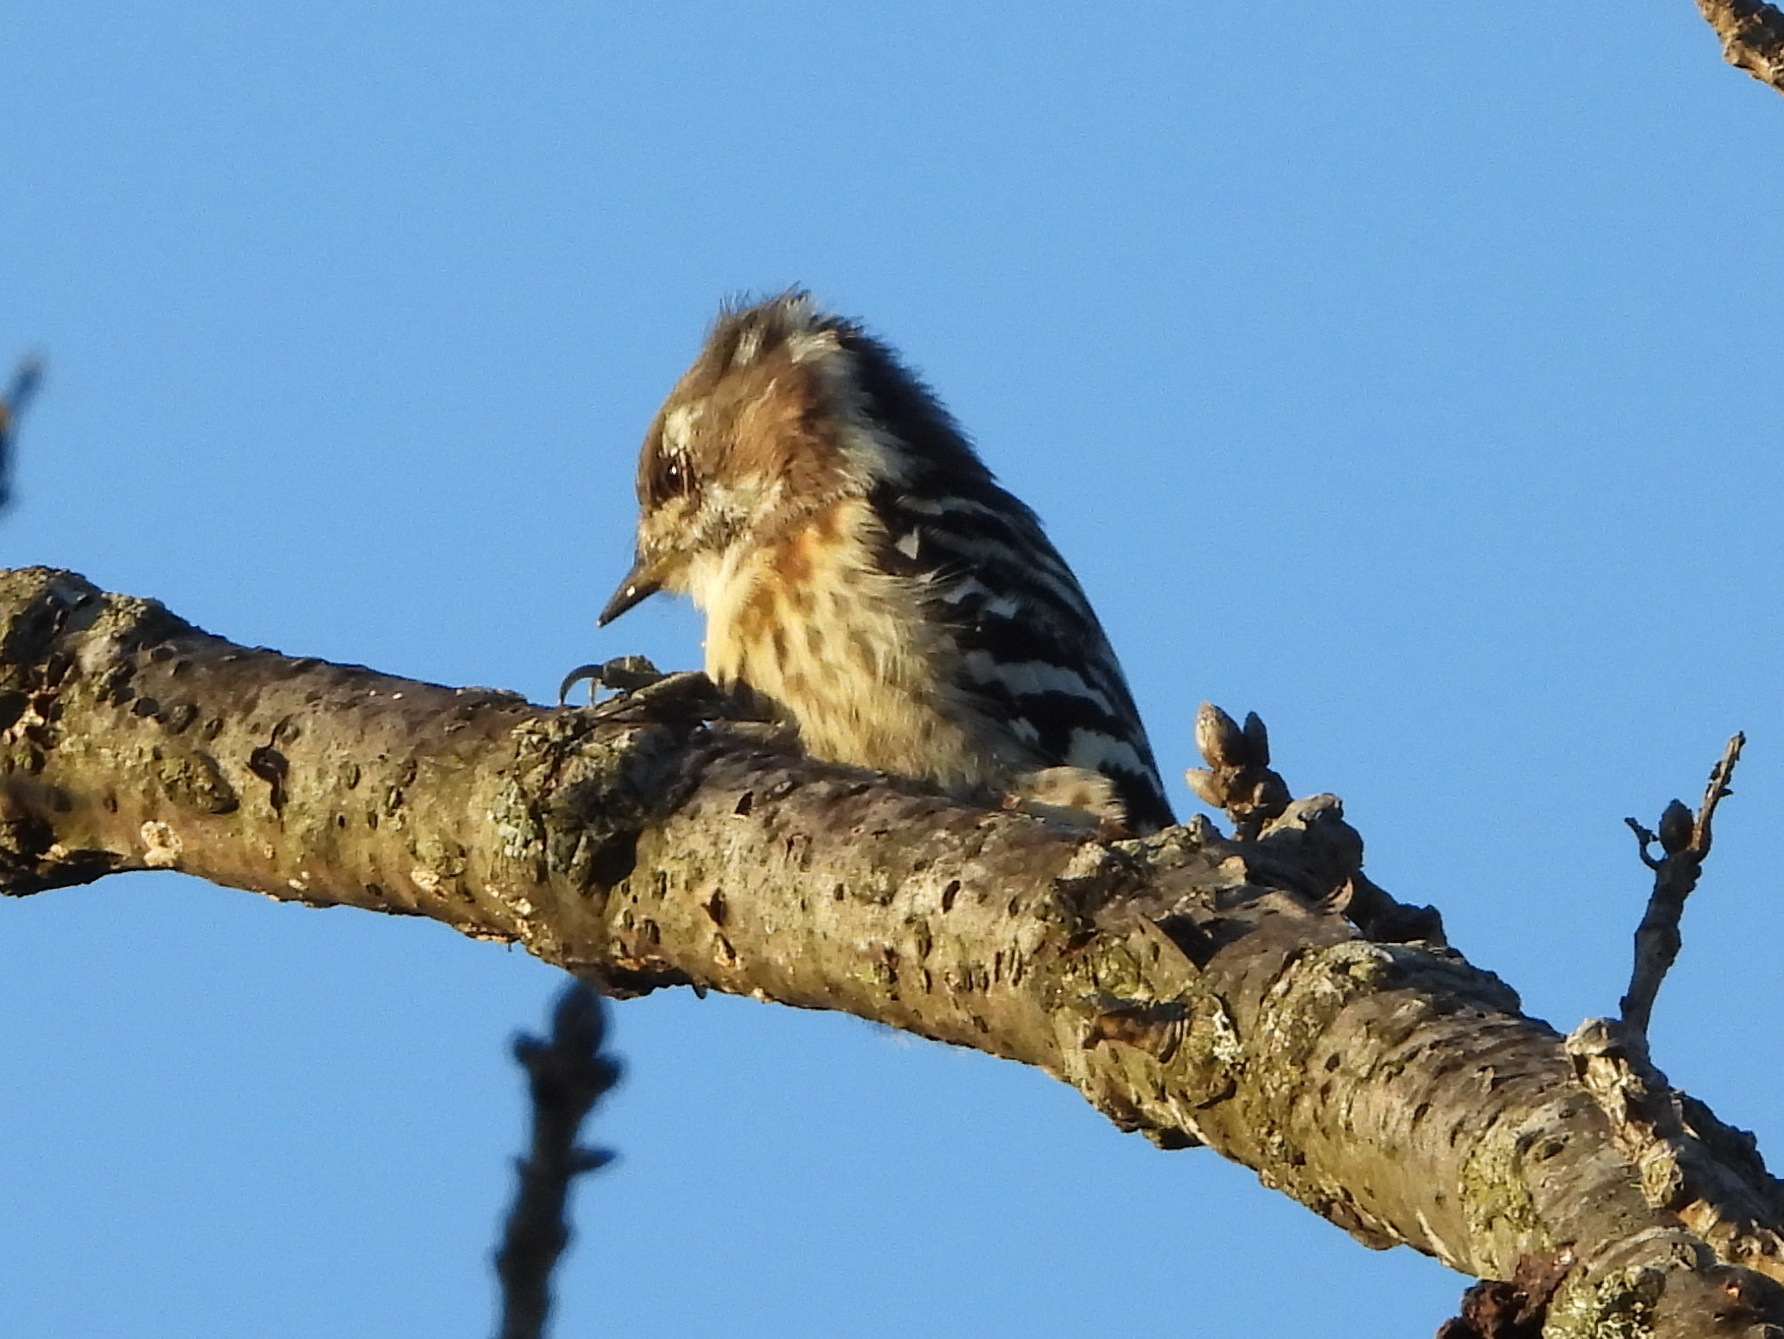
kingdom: Animalia
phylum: Chordata
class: Aves
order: Piciformes
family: Picidae
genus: Yungipicus
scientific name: Yungipicus kizuki
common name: Japanese pygmy woodpecker
